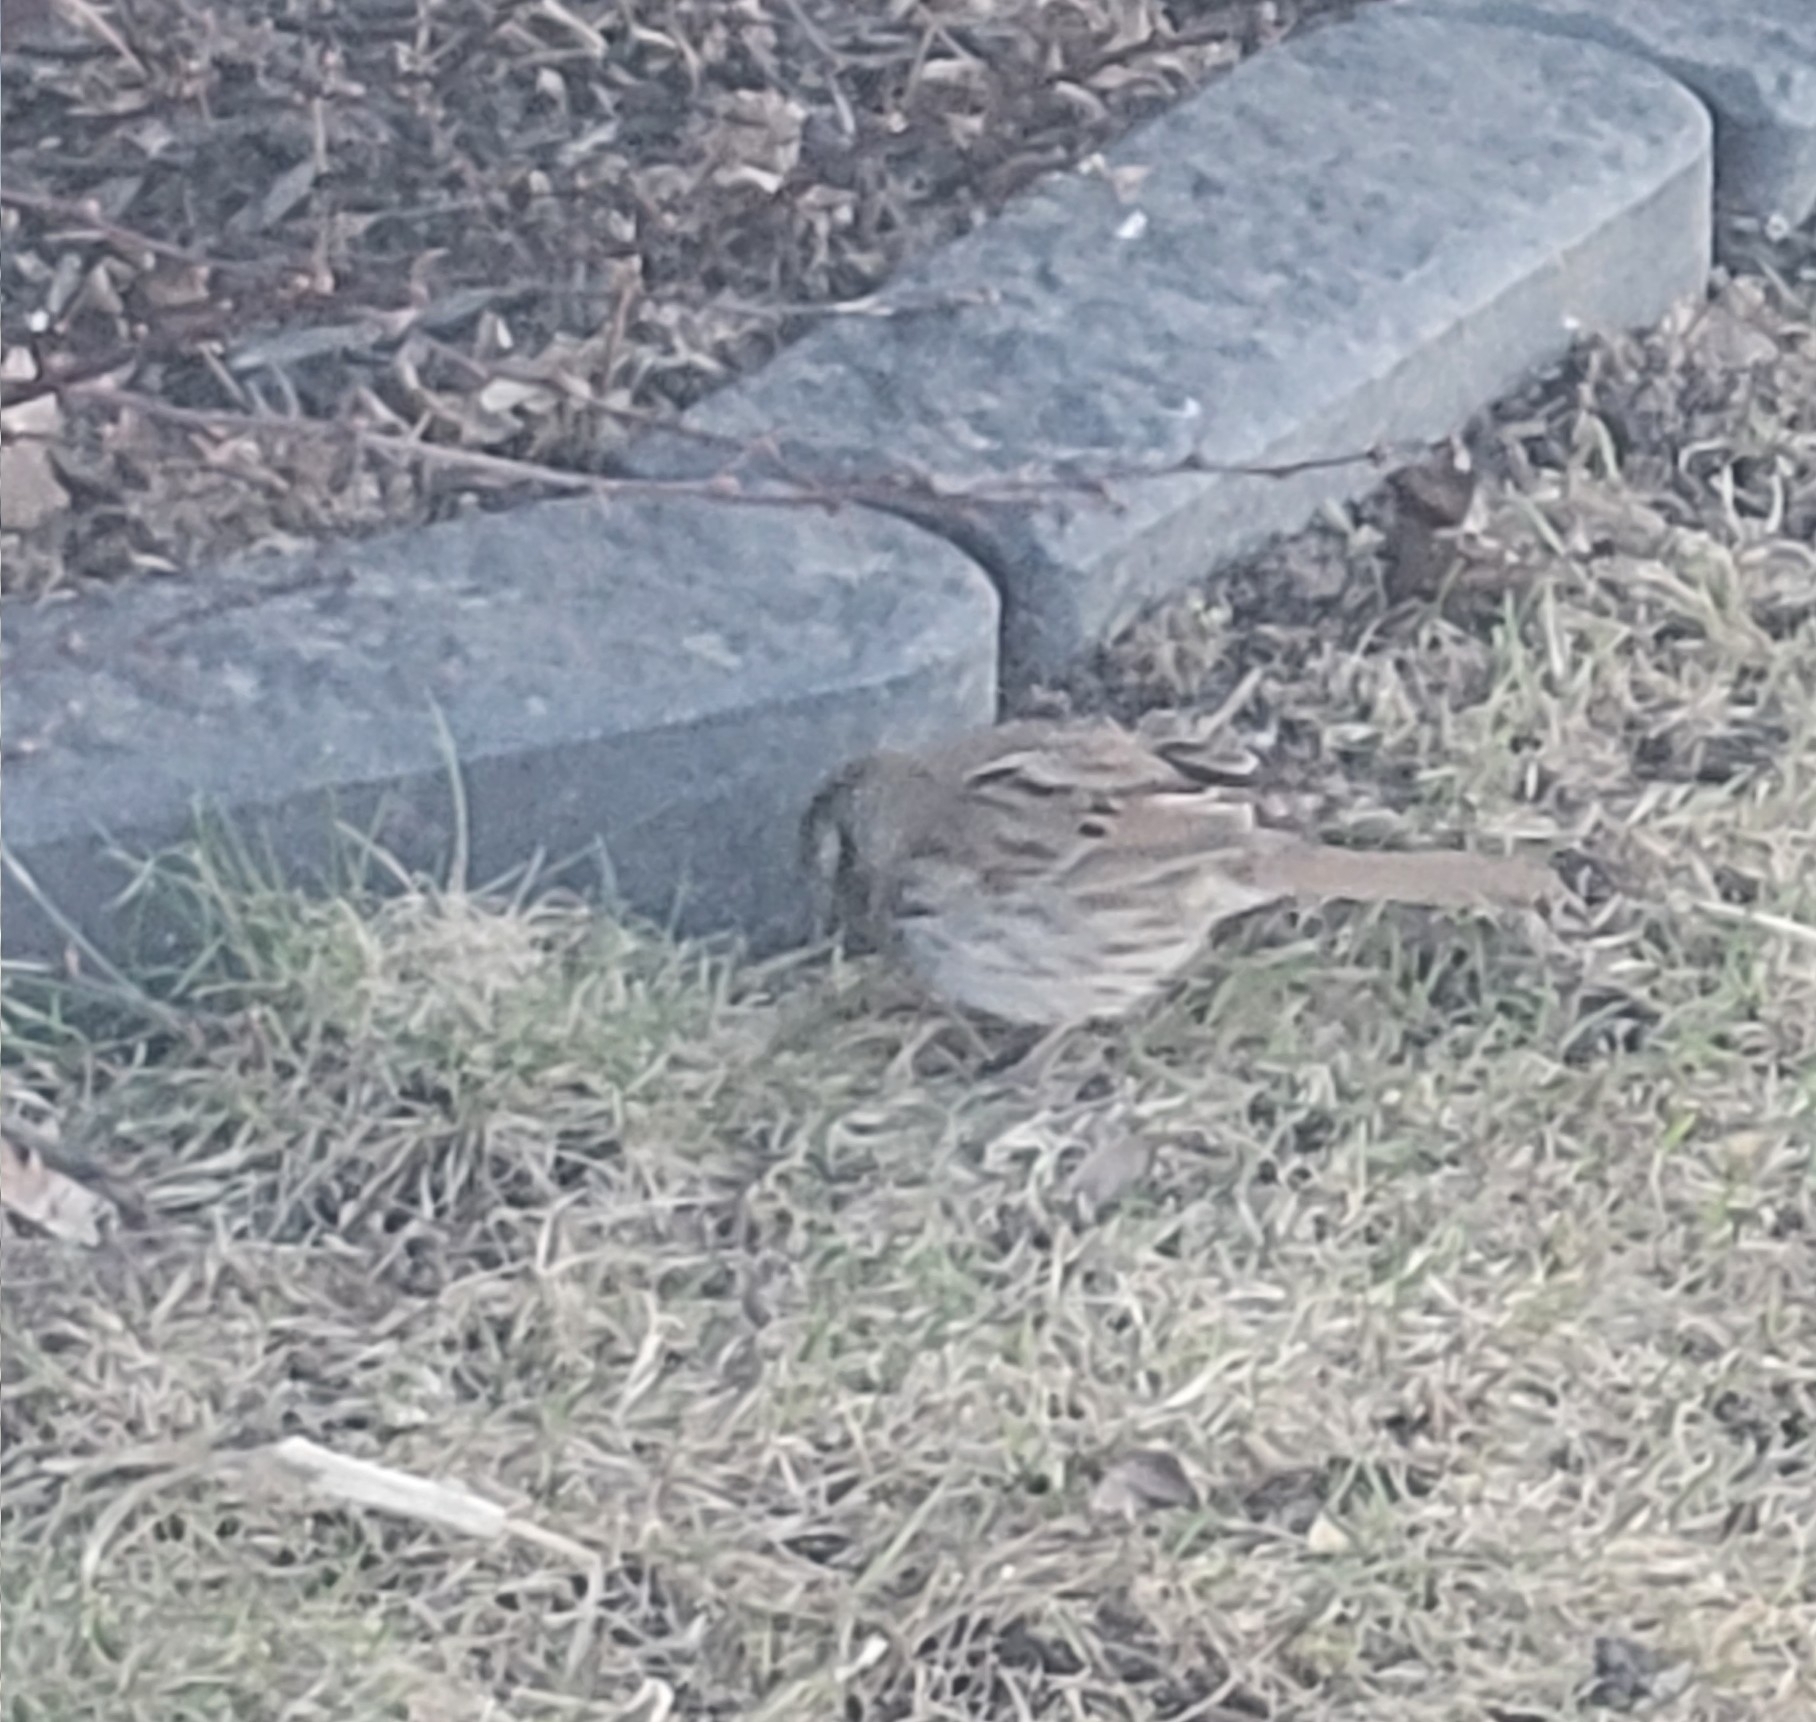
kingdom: Animalia
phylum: Chordata
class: Aves
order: Passeriformes
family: Passerellidae
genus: Melospiza
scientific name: Melospiza melodia
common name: Song sparrow
